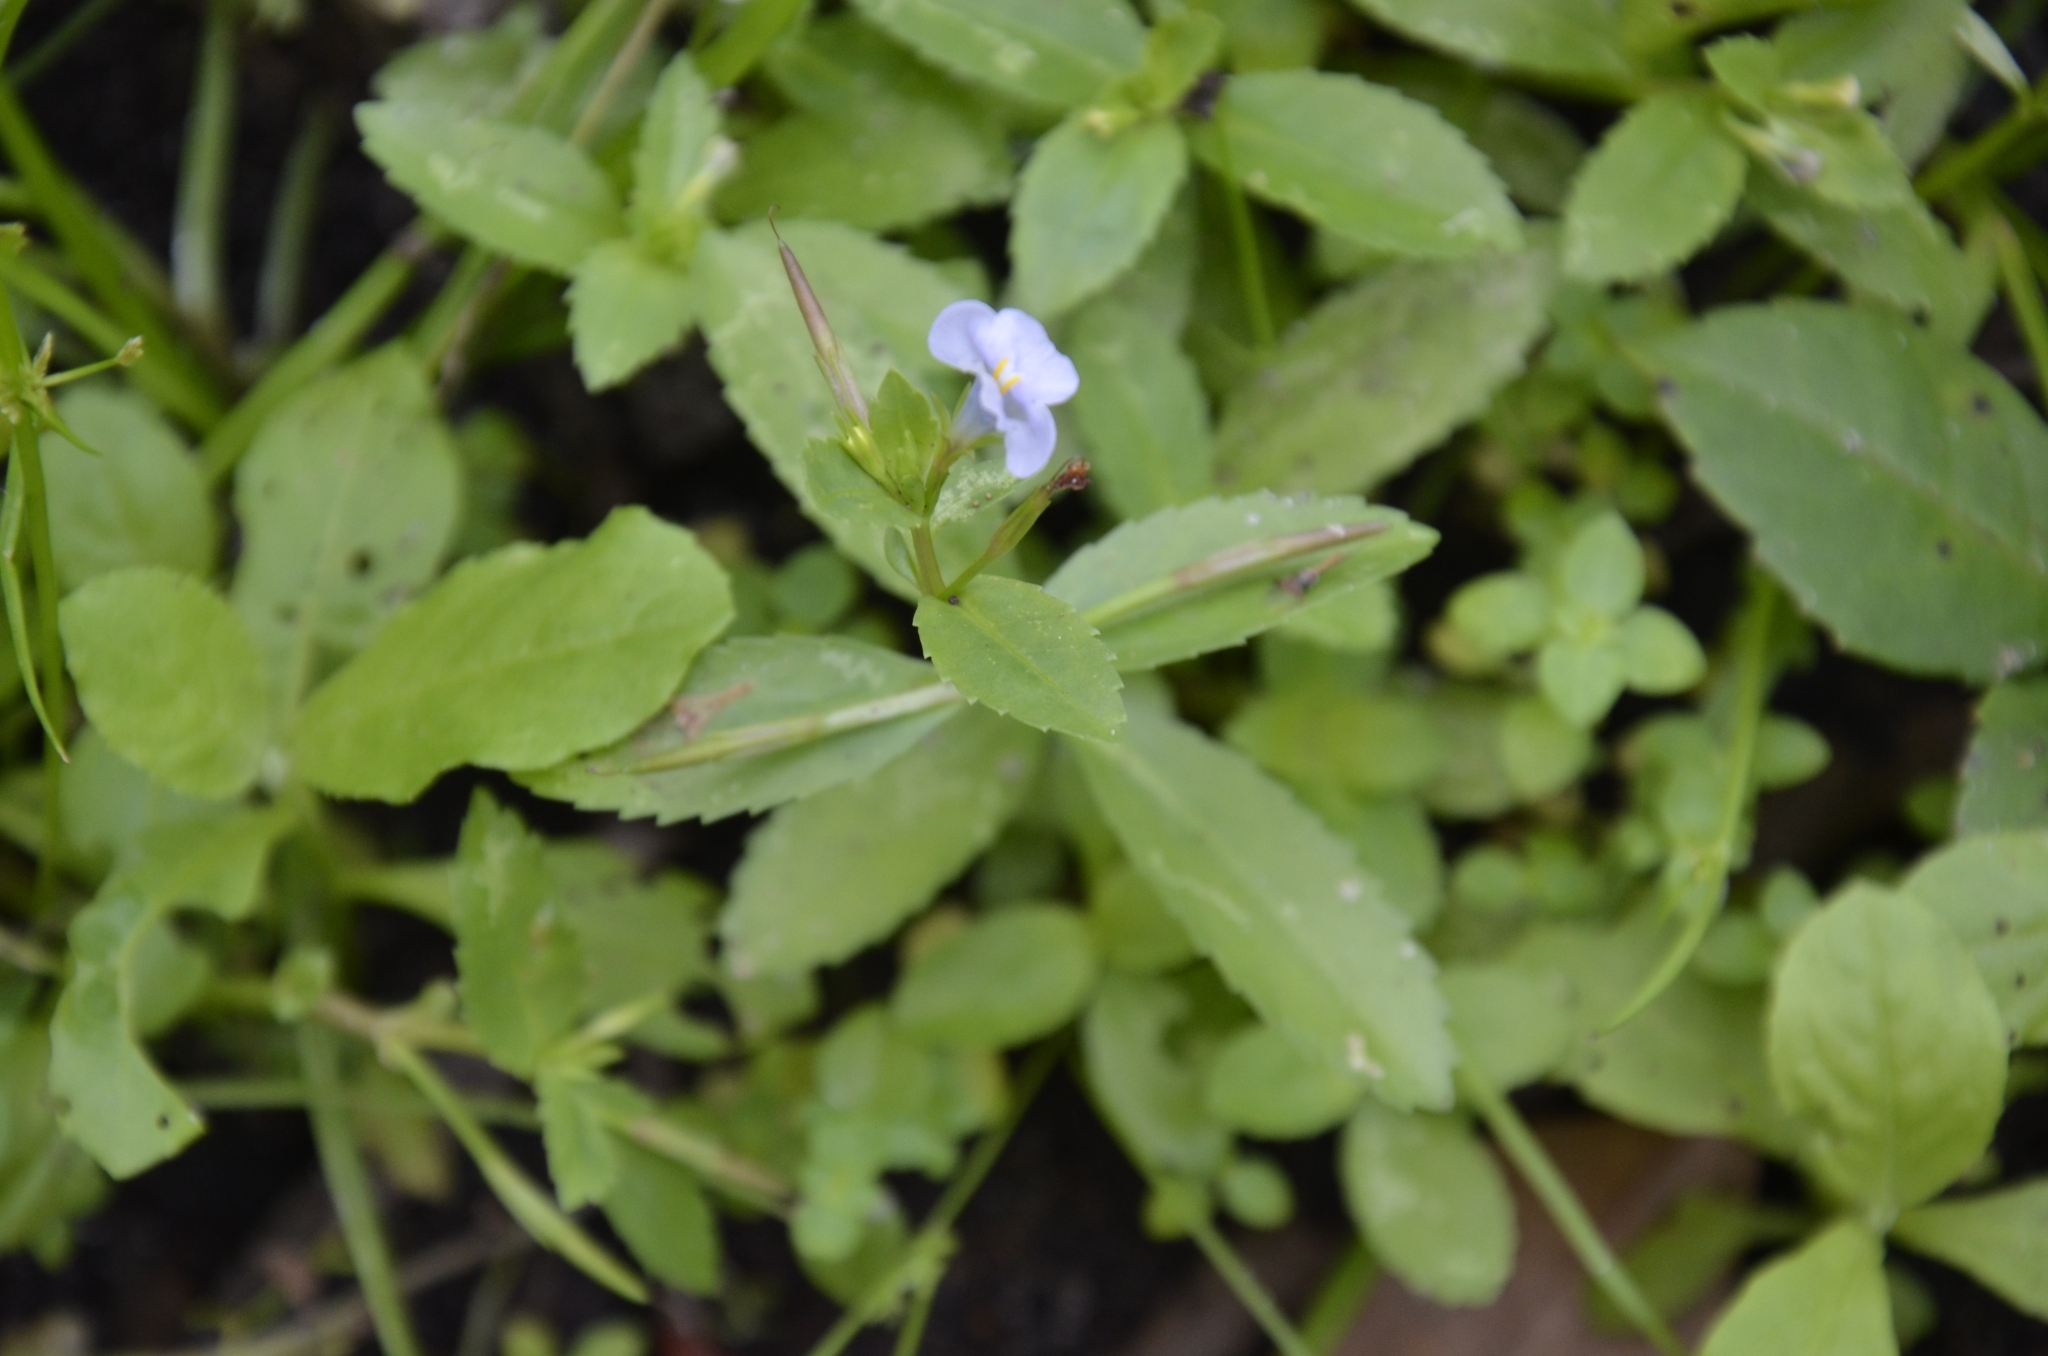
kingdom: Plantae
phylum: Tracheophyta
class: Magnoliopsida
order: Lamiales
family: Linderniaceae
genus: Bonnaya
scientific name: Bonnaya sanpabloensis
